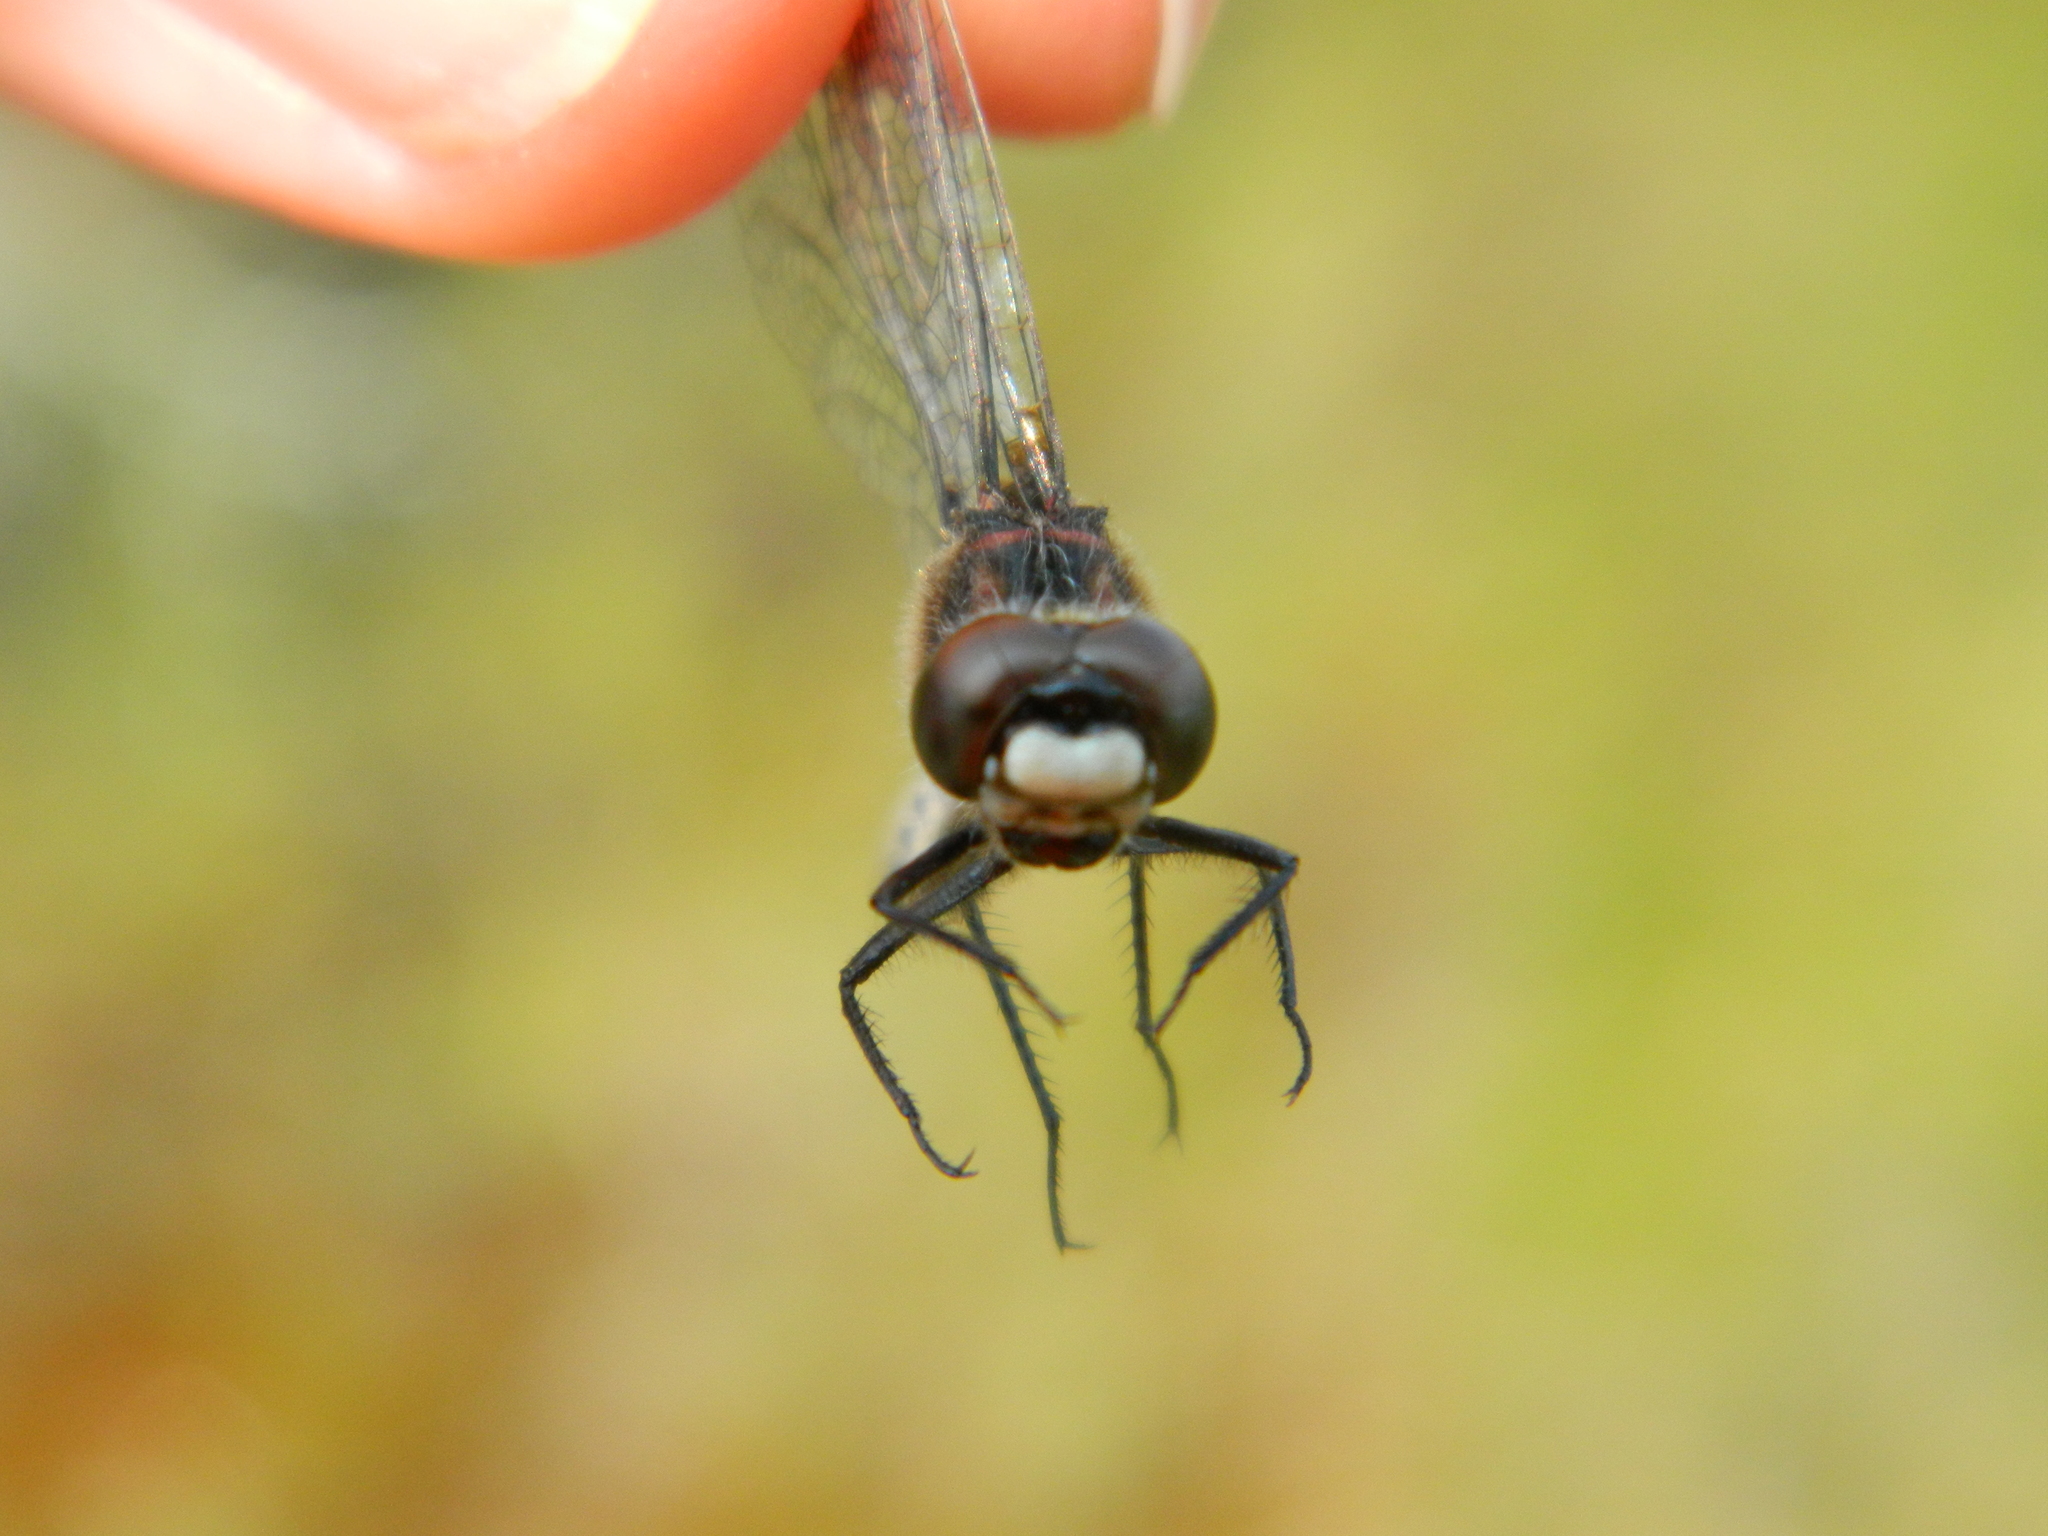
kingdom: Animalia
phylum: Arthropoda
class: Insecta
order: Odonata
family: Libellulidae
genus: Leucorrhinia
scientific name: Leucorrhinia hudsonica
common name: Hudsonian whiteface
